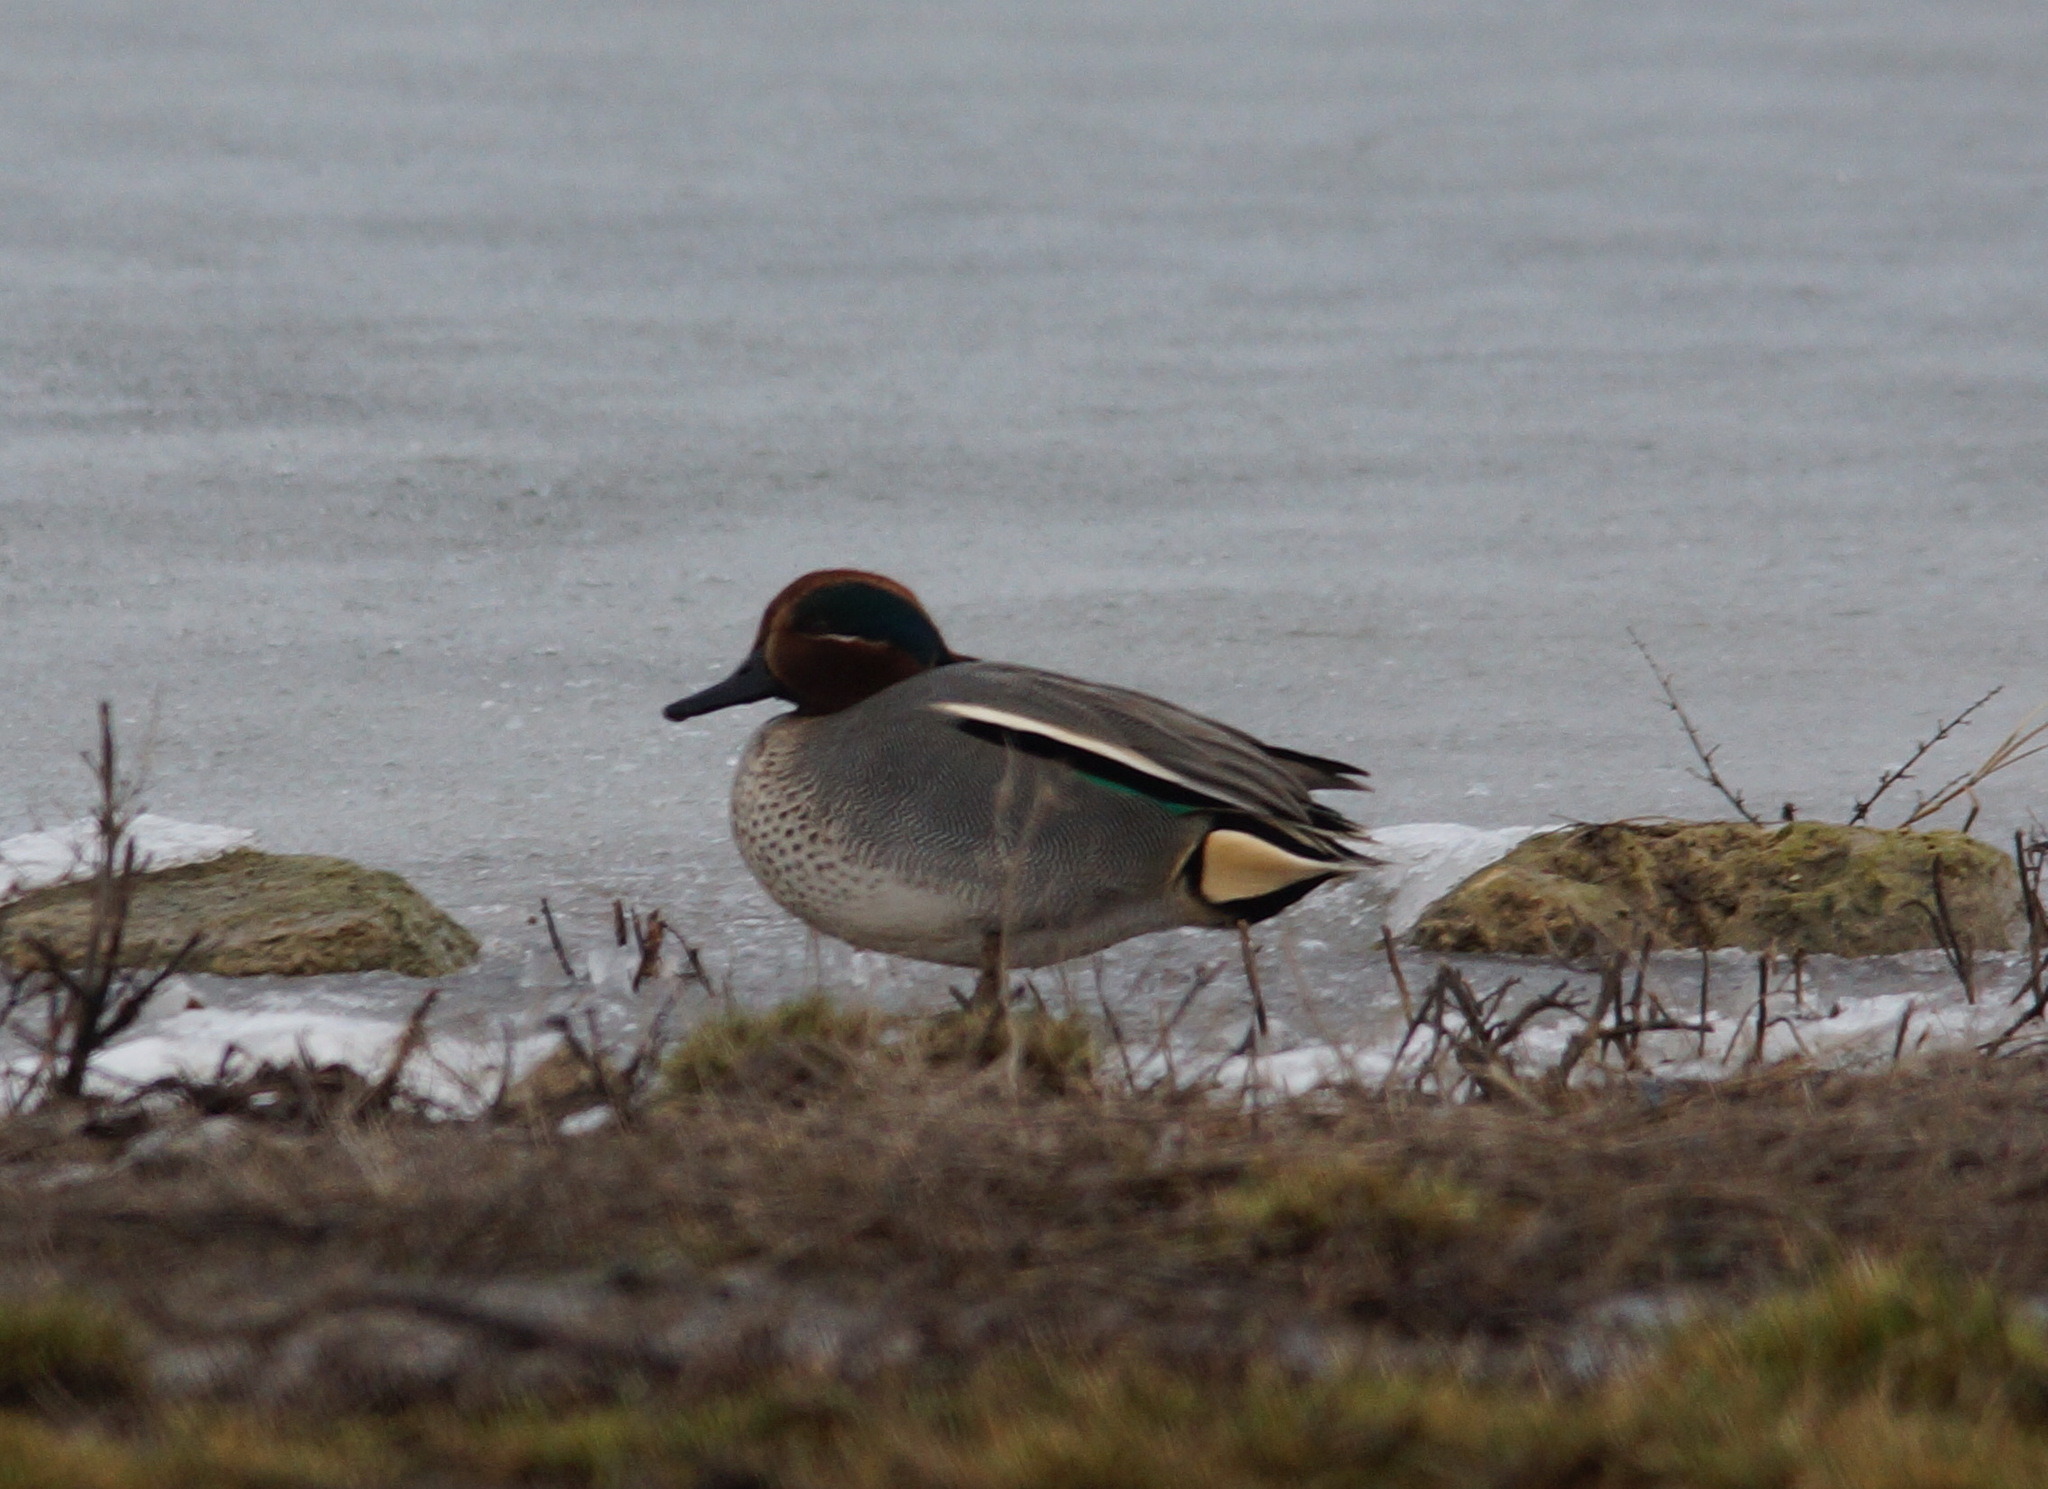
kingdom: Animalia
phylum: Chordata
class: Aves
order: Anseriformes
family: Anatidae
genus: Anas
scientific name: Anas crecca
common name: Eurasian teal
